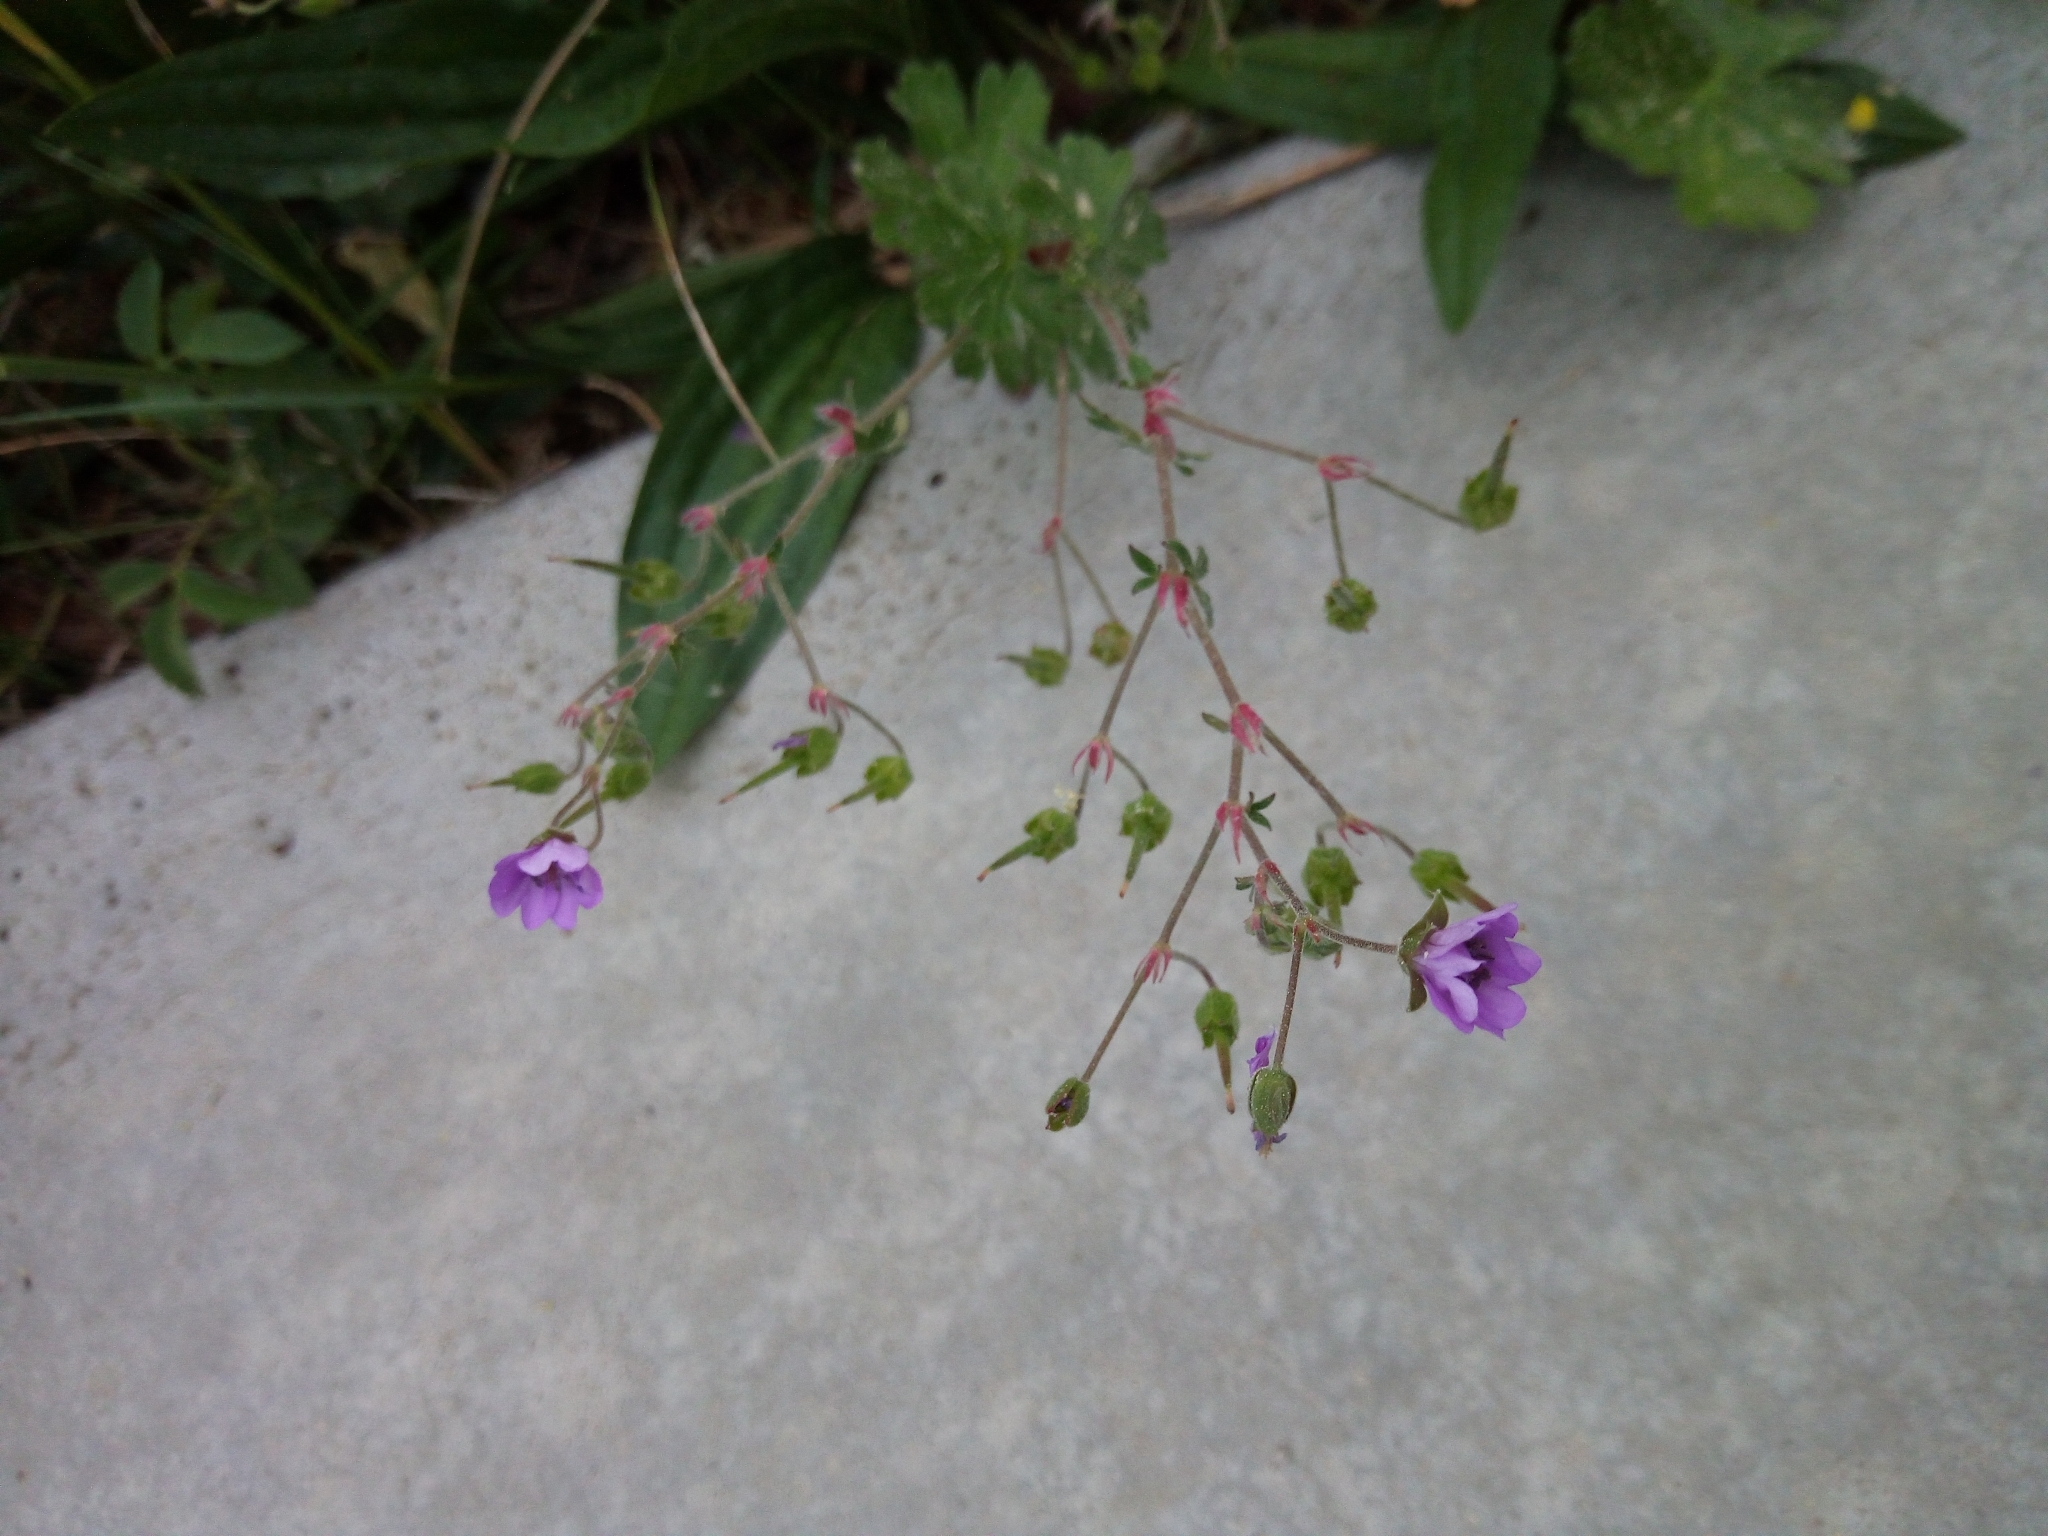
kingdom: Plantae
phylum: Tracheophyta
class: Magnoliopsida
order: Geraniales
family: Geraniaceae
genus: Geranium
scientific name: Geranium pyrenaicum
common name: Hedgerow crane's-bill
